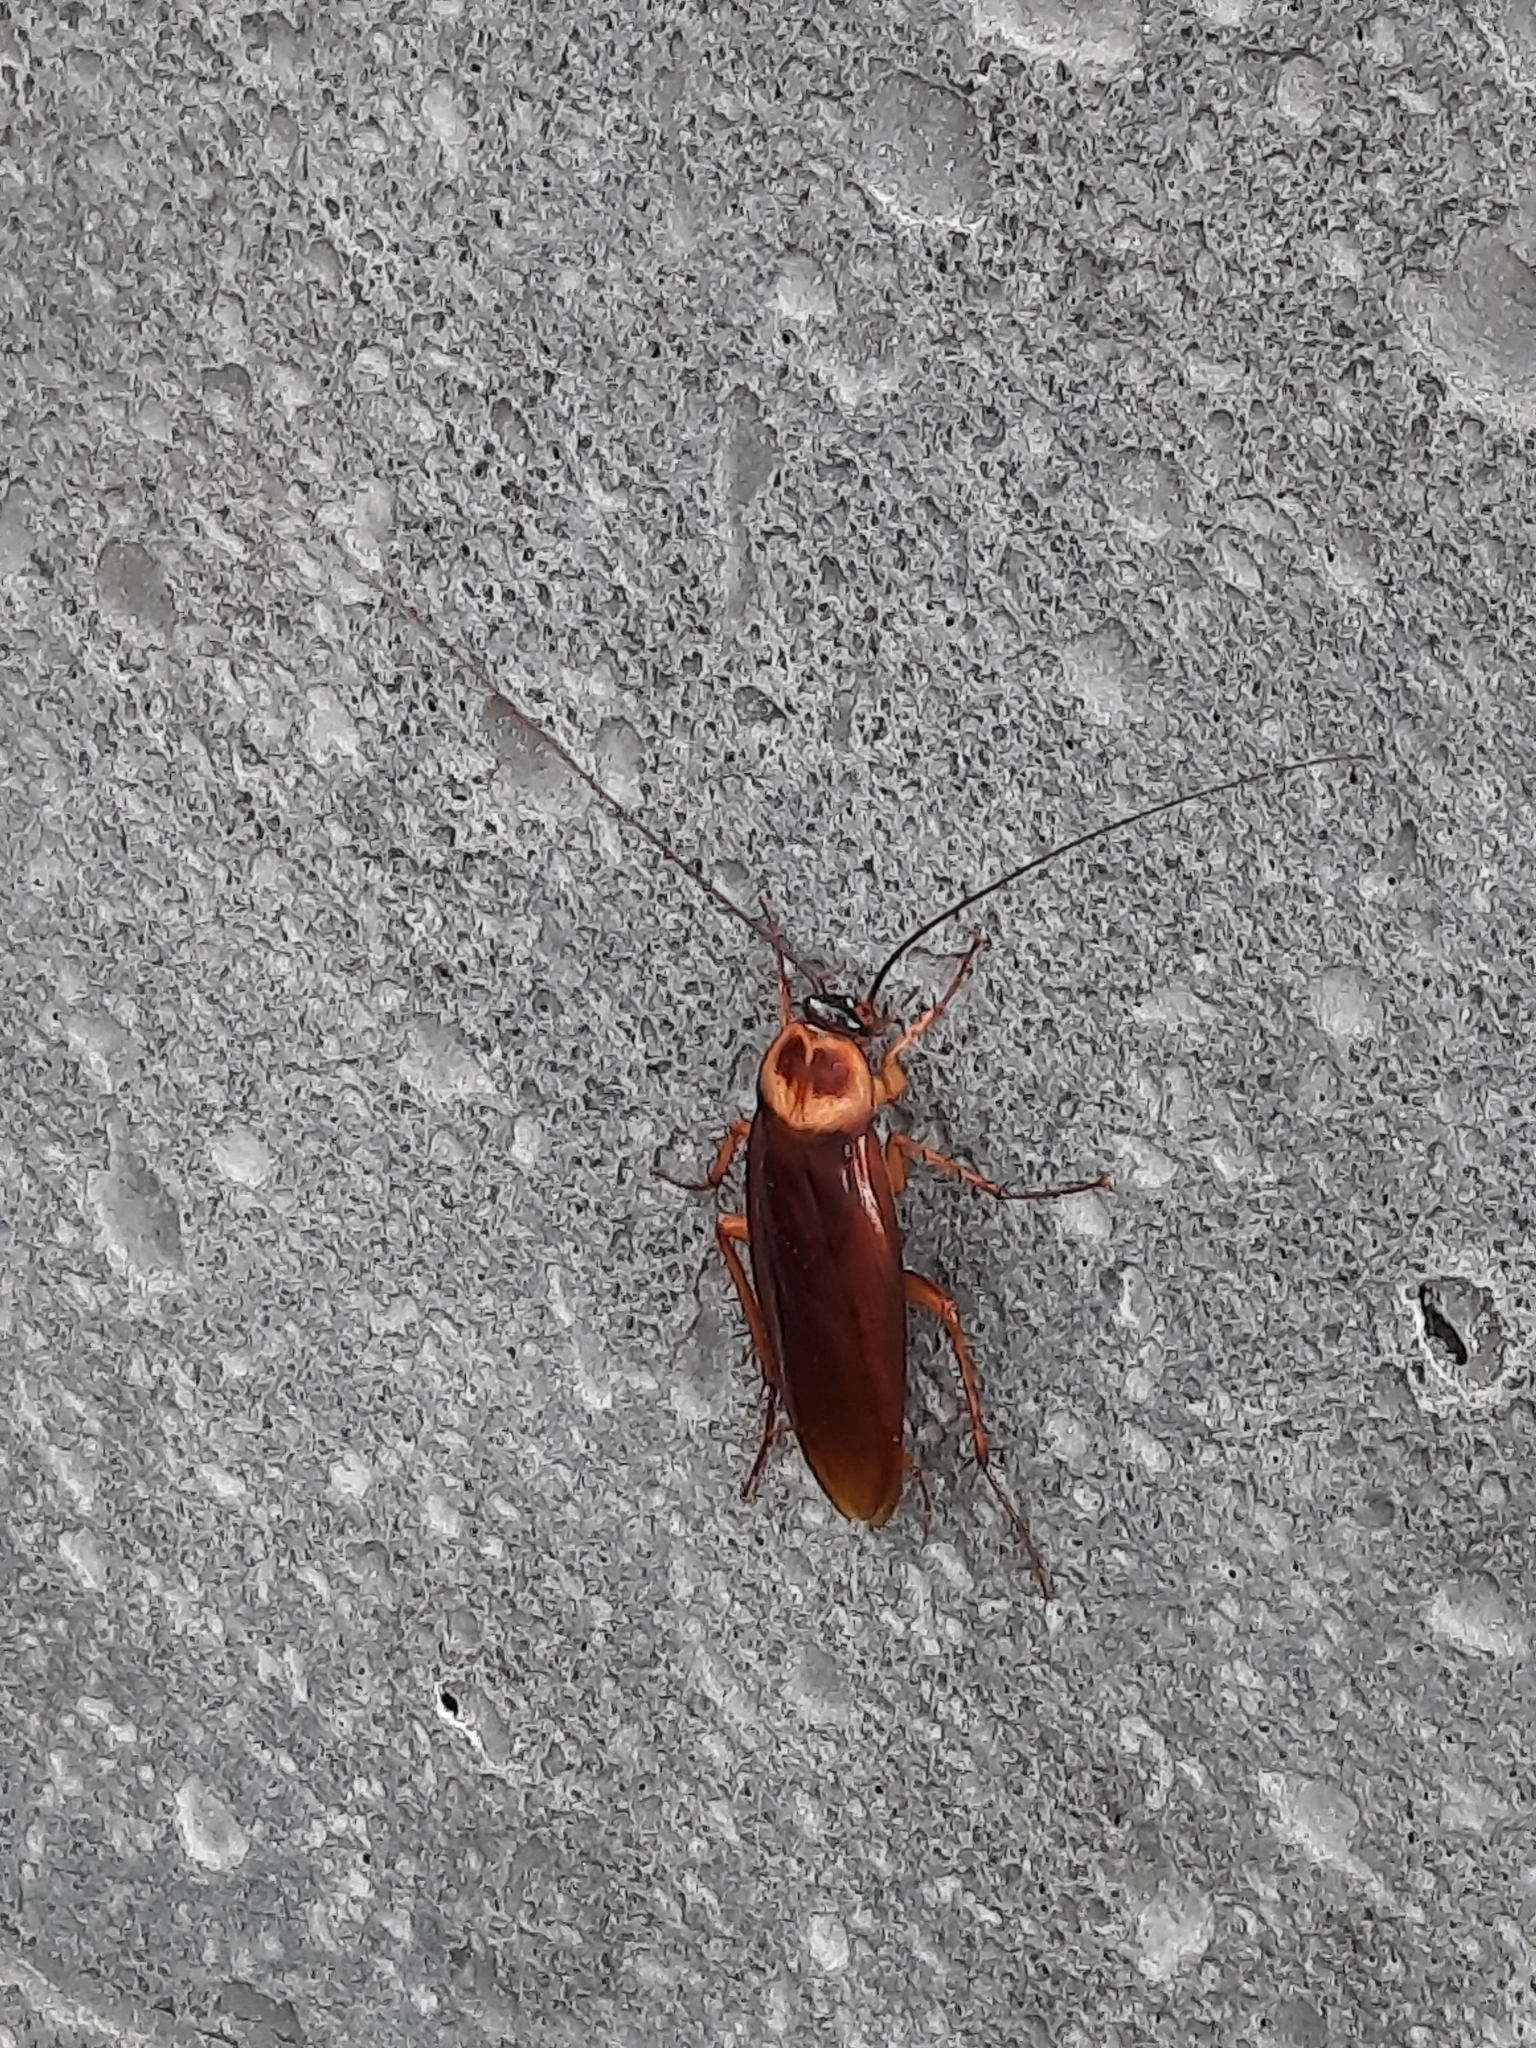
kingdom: Animalia
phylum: Arthropoda
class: Insecta
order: Blattodea
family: Blattidae
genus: Periplaneta
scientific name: Periplaneta americana
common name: American cockroach
